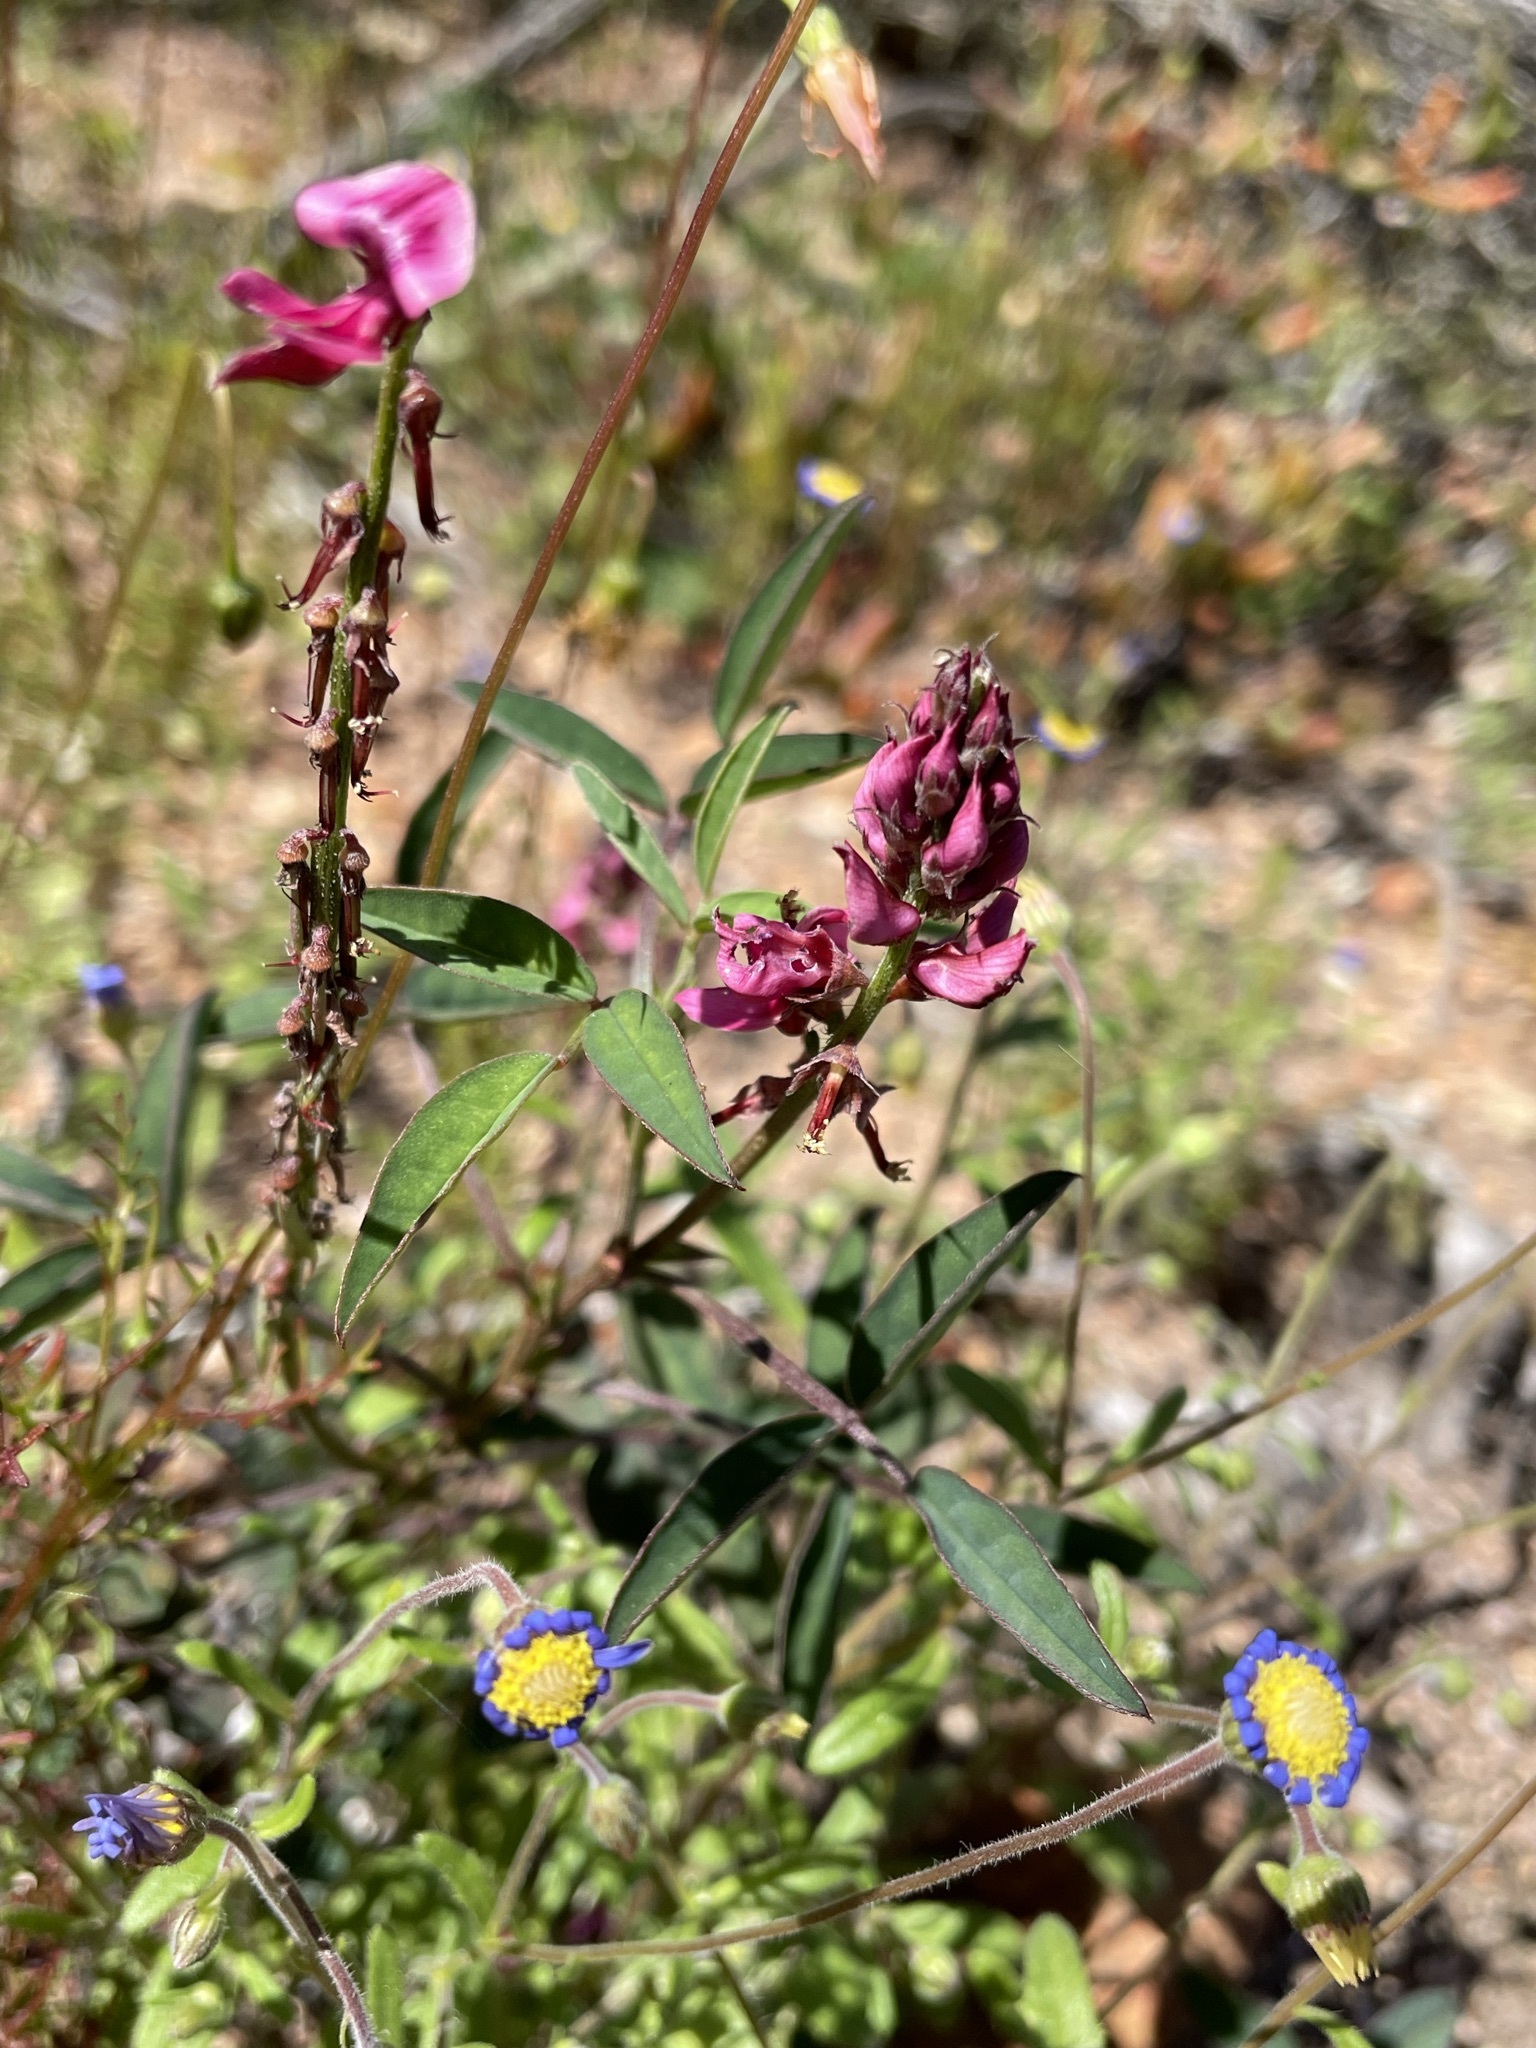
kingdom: Plantae
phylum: Tracheophyta
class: Magnoliopsida
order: Fabales
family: Fabaceae
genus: Indigofera
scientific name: Indigofera amoena
